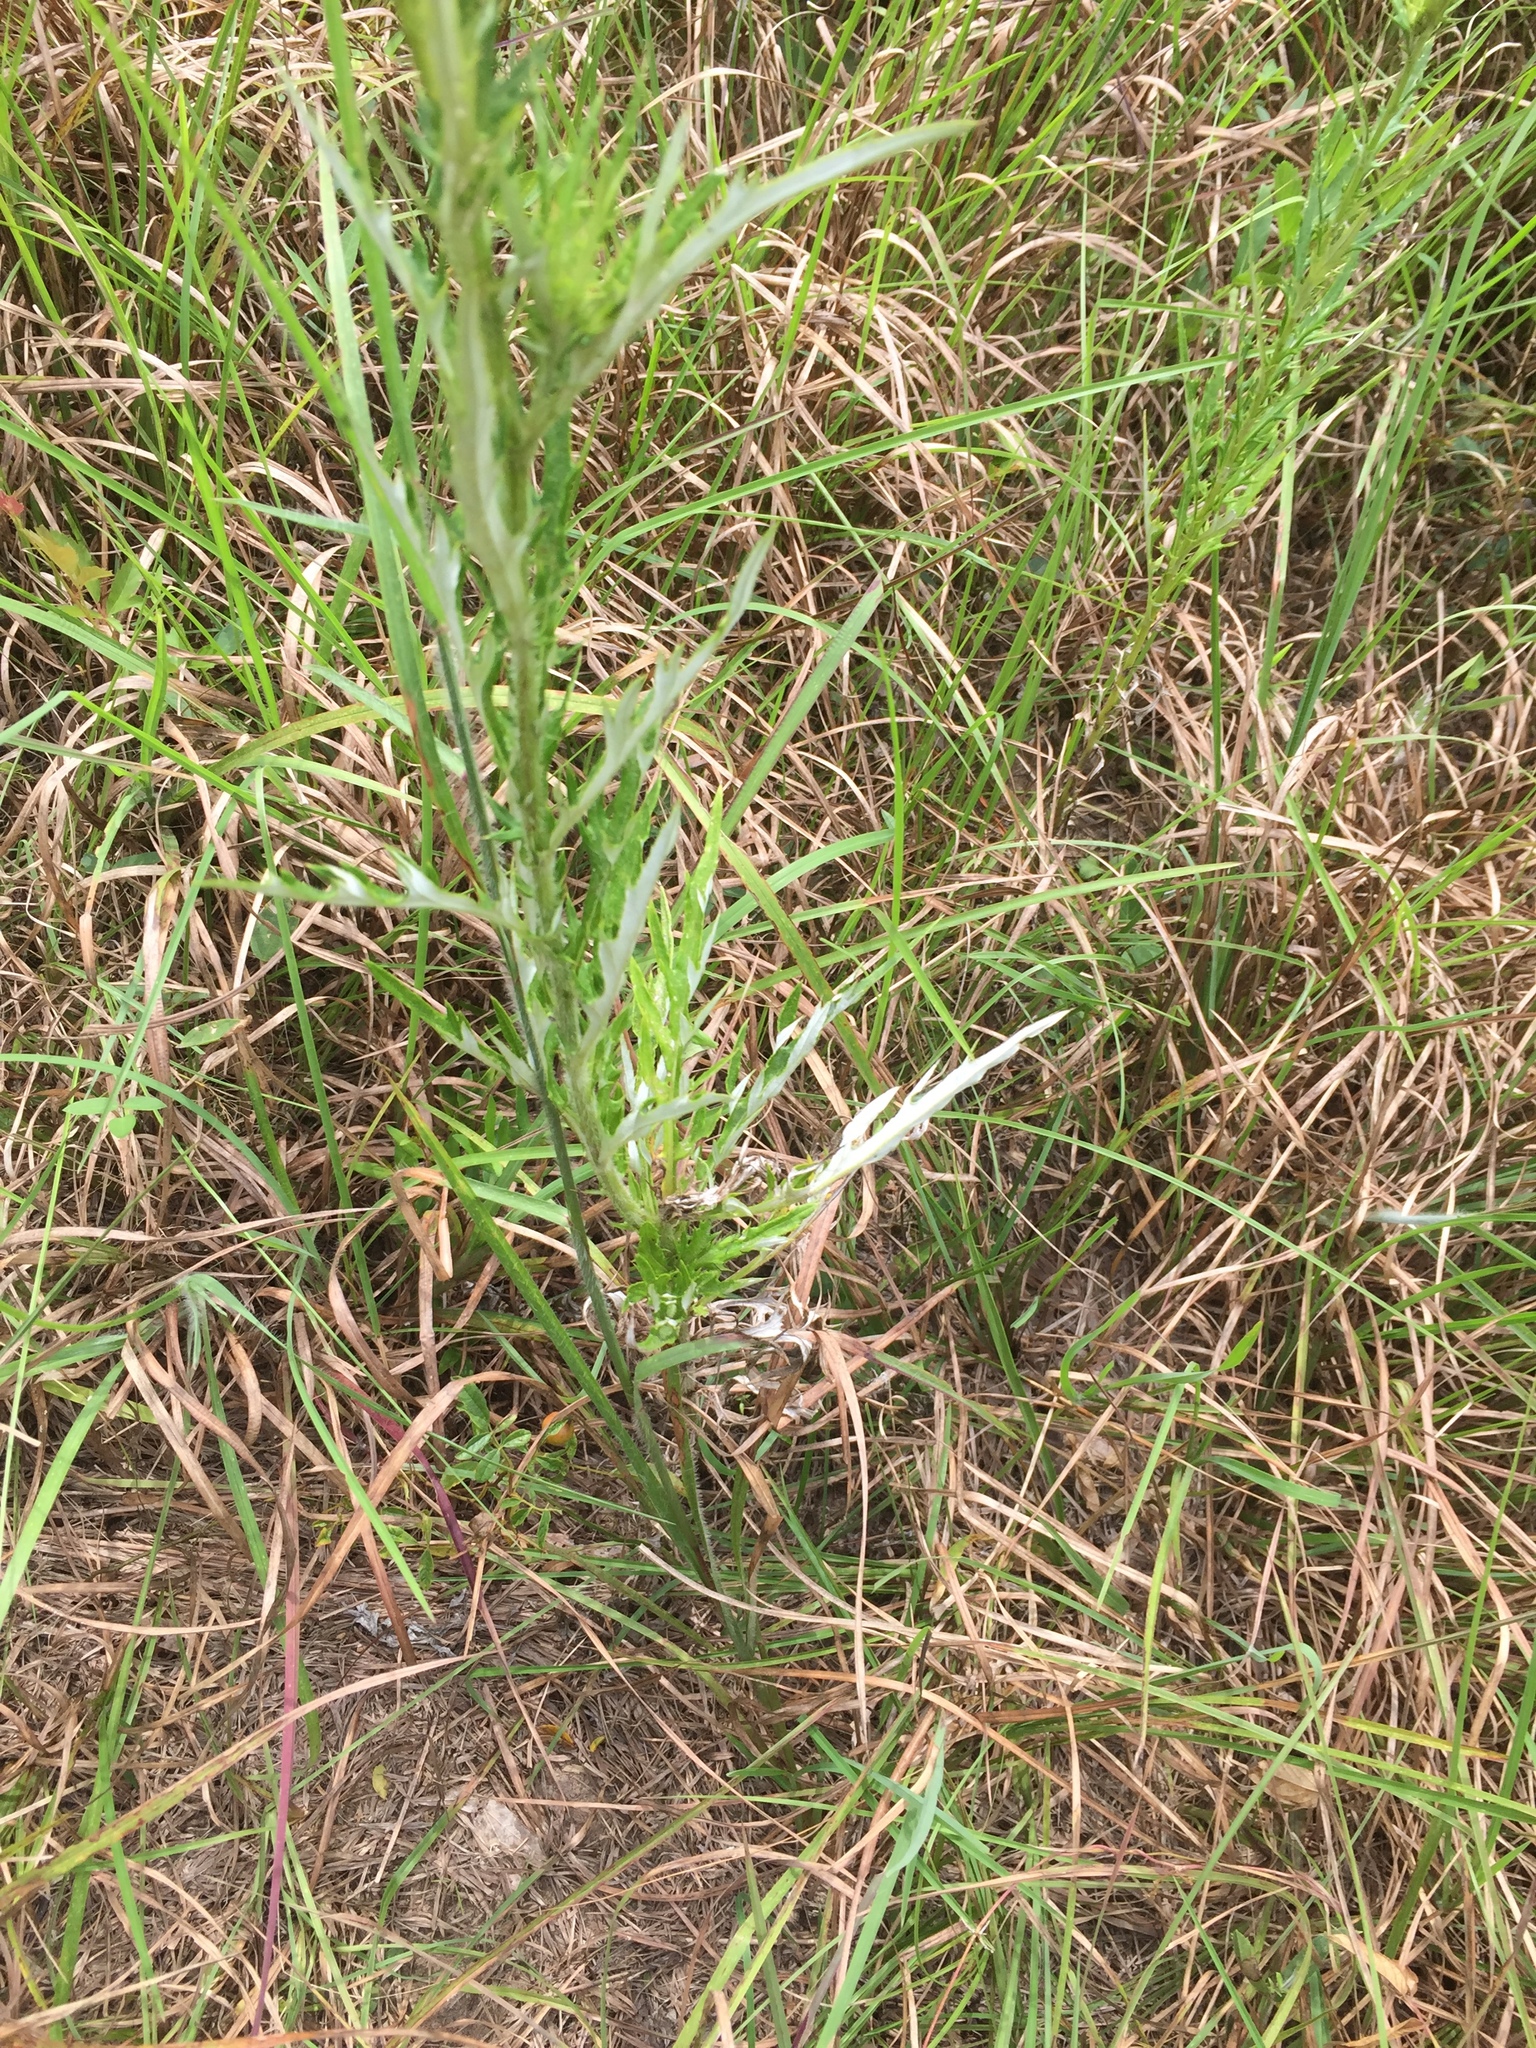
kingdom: Plantae
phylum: Tracheophyta
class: Magnoliopsida
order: Asterales
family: Asteraceae
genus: Cirsium
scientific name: Cirsium discolor
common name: Field thistle
